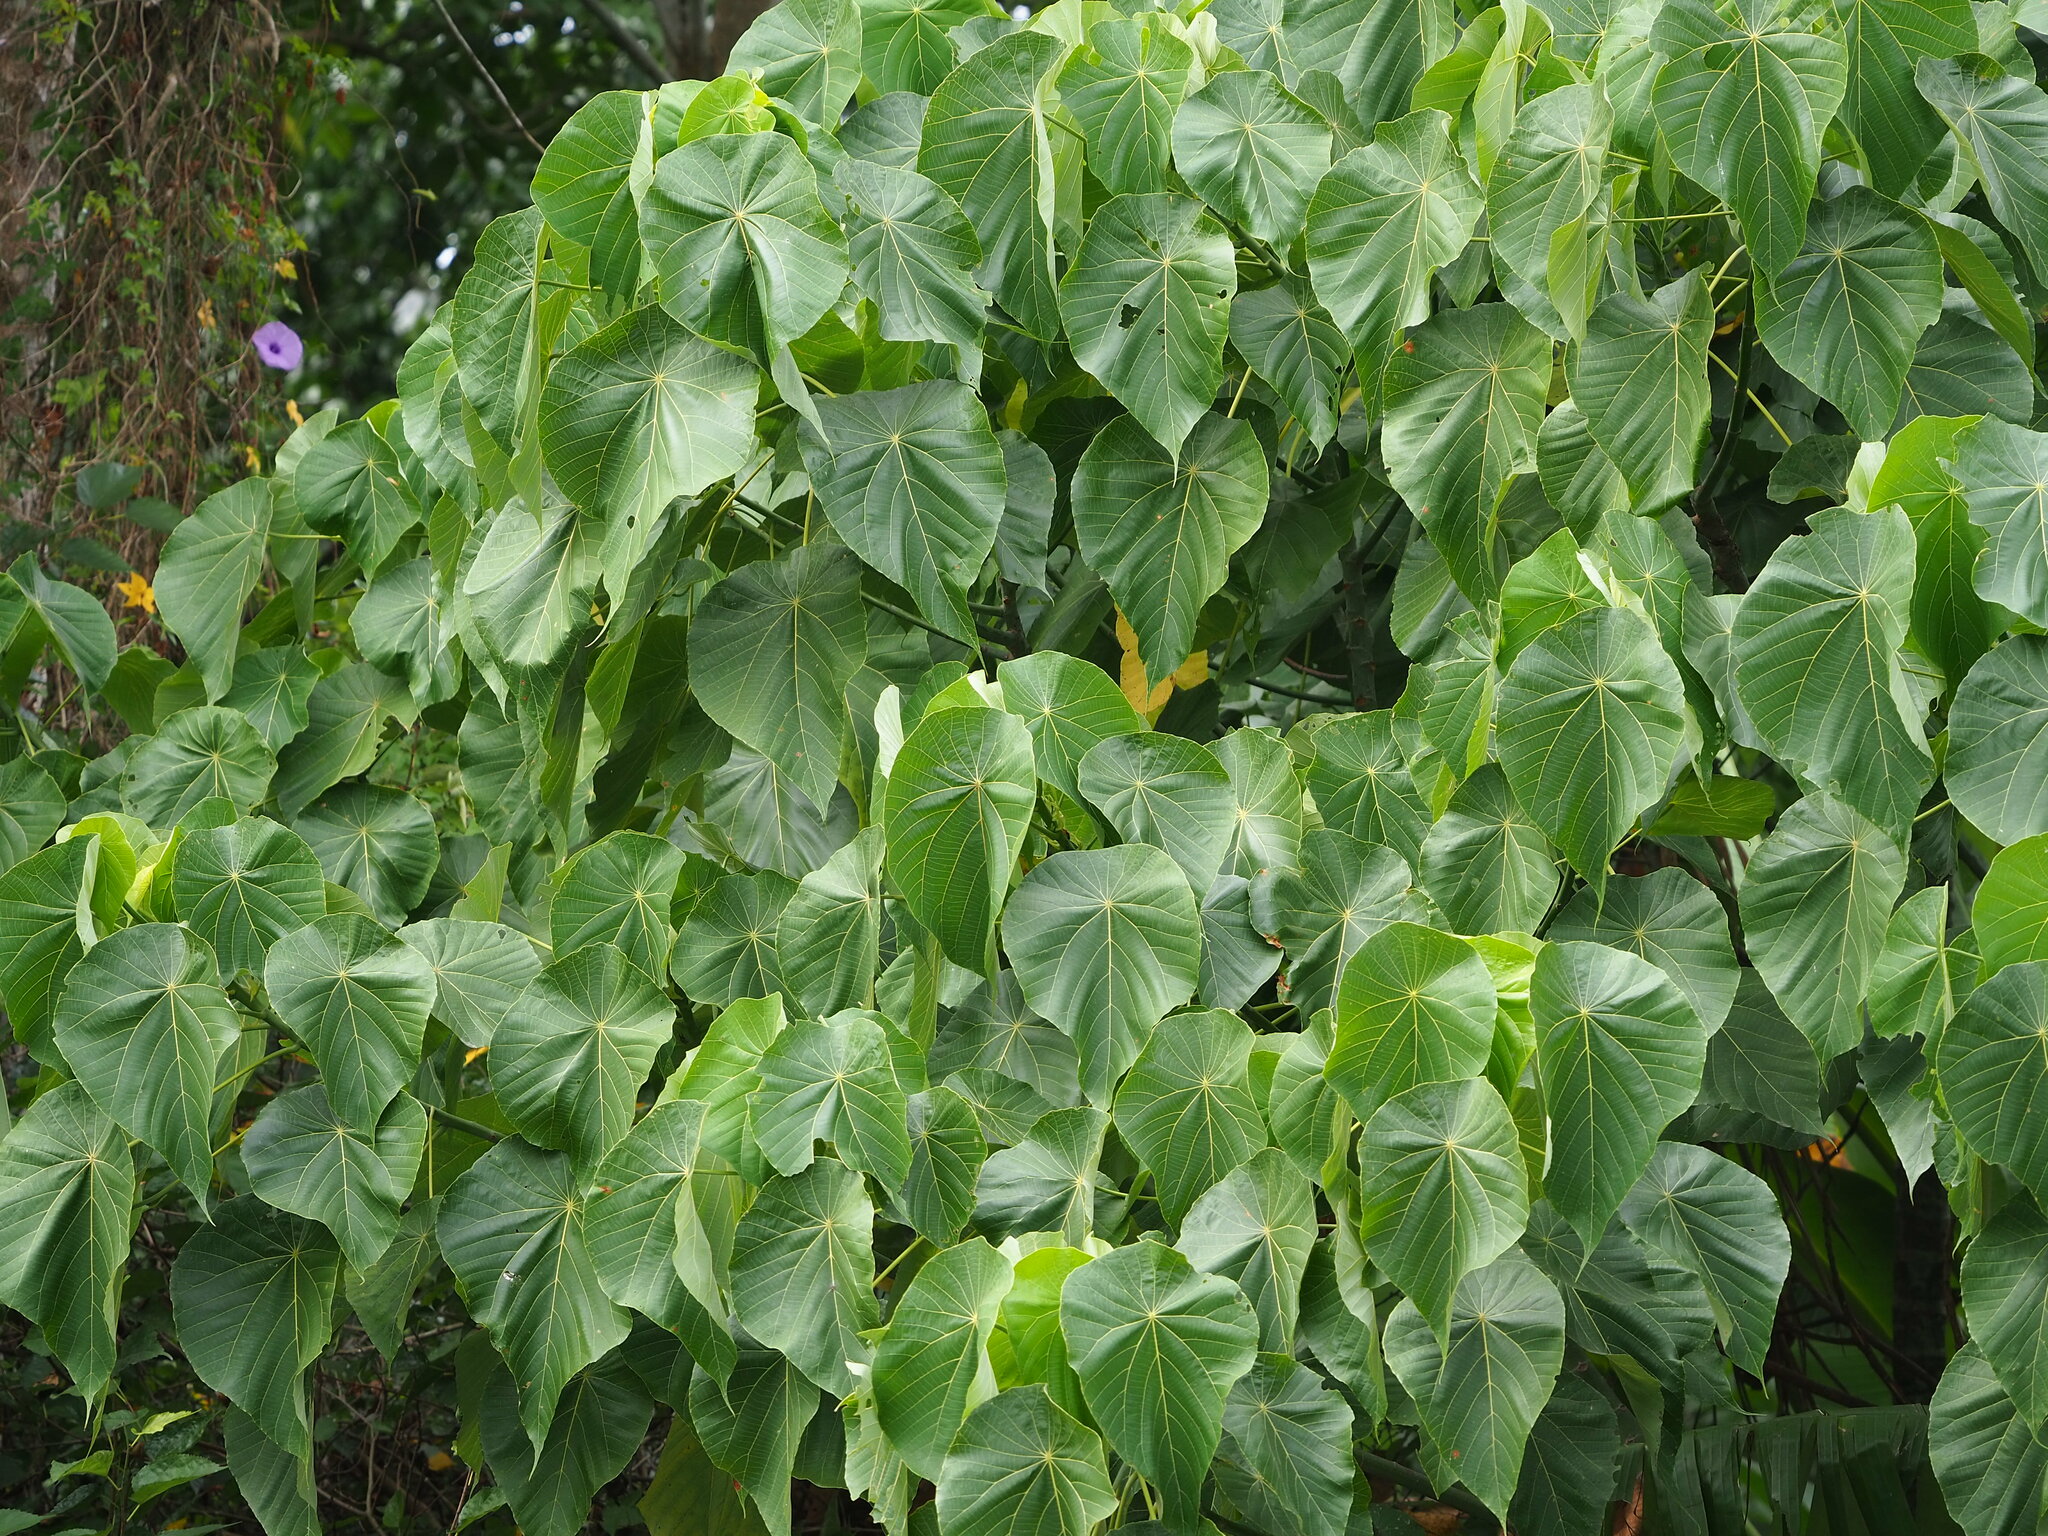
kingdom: Plantae
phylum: Tracheophyta
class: Magnoliopsida
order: Malpighiales
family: Euphorbiaceae
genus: Macaranga
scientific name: Macaranga tanarius
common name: Parasol leaf tree
